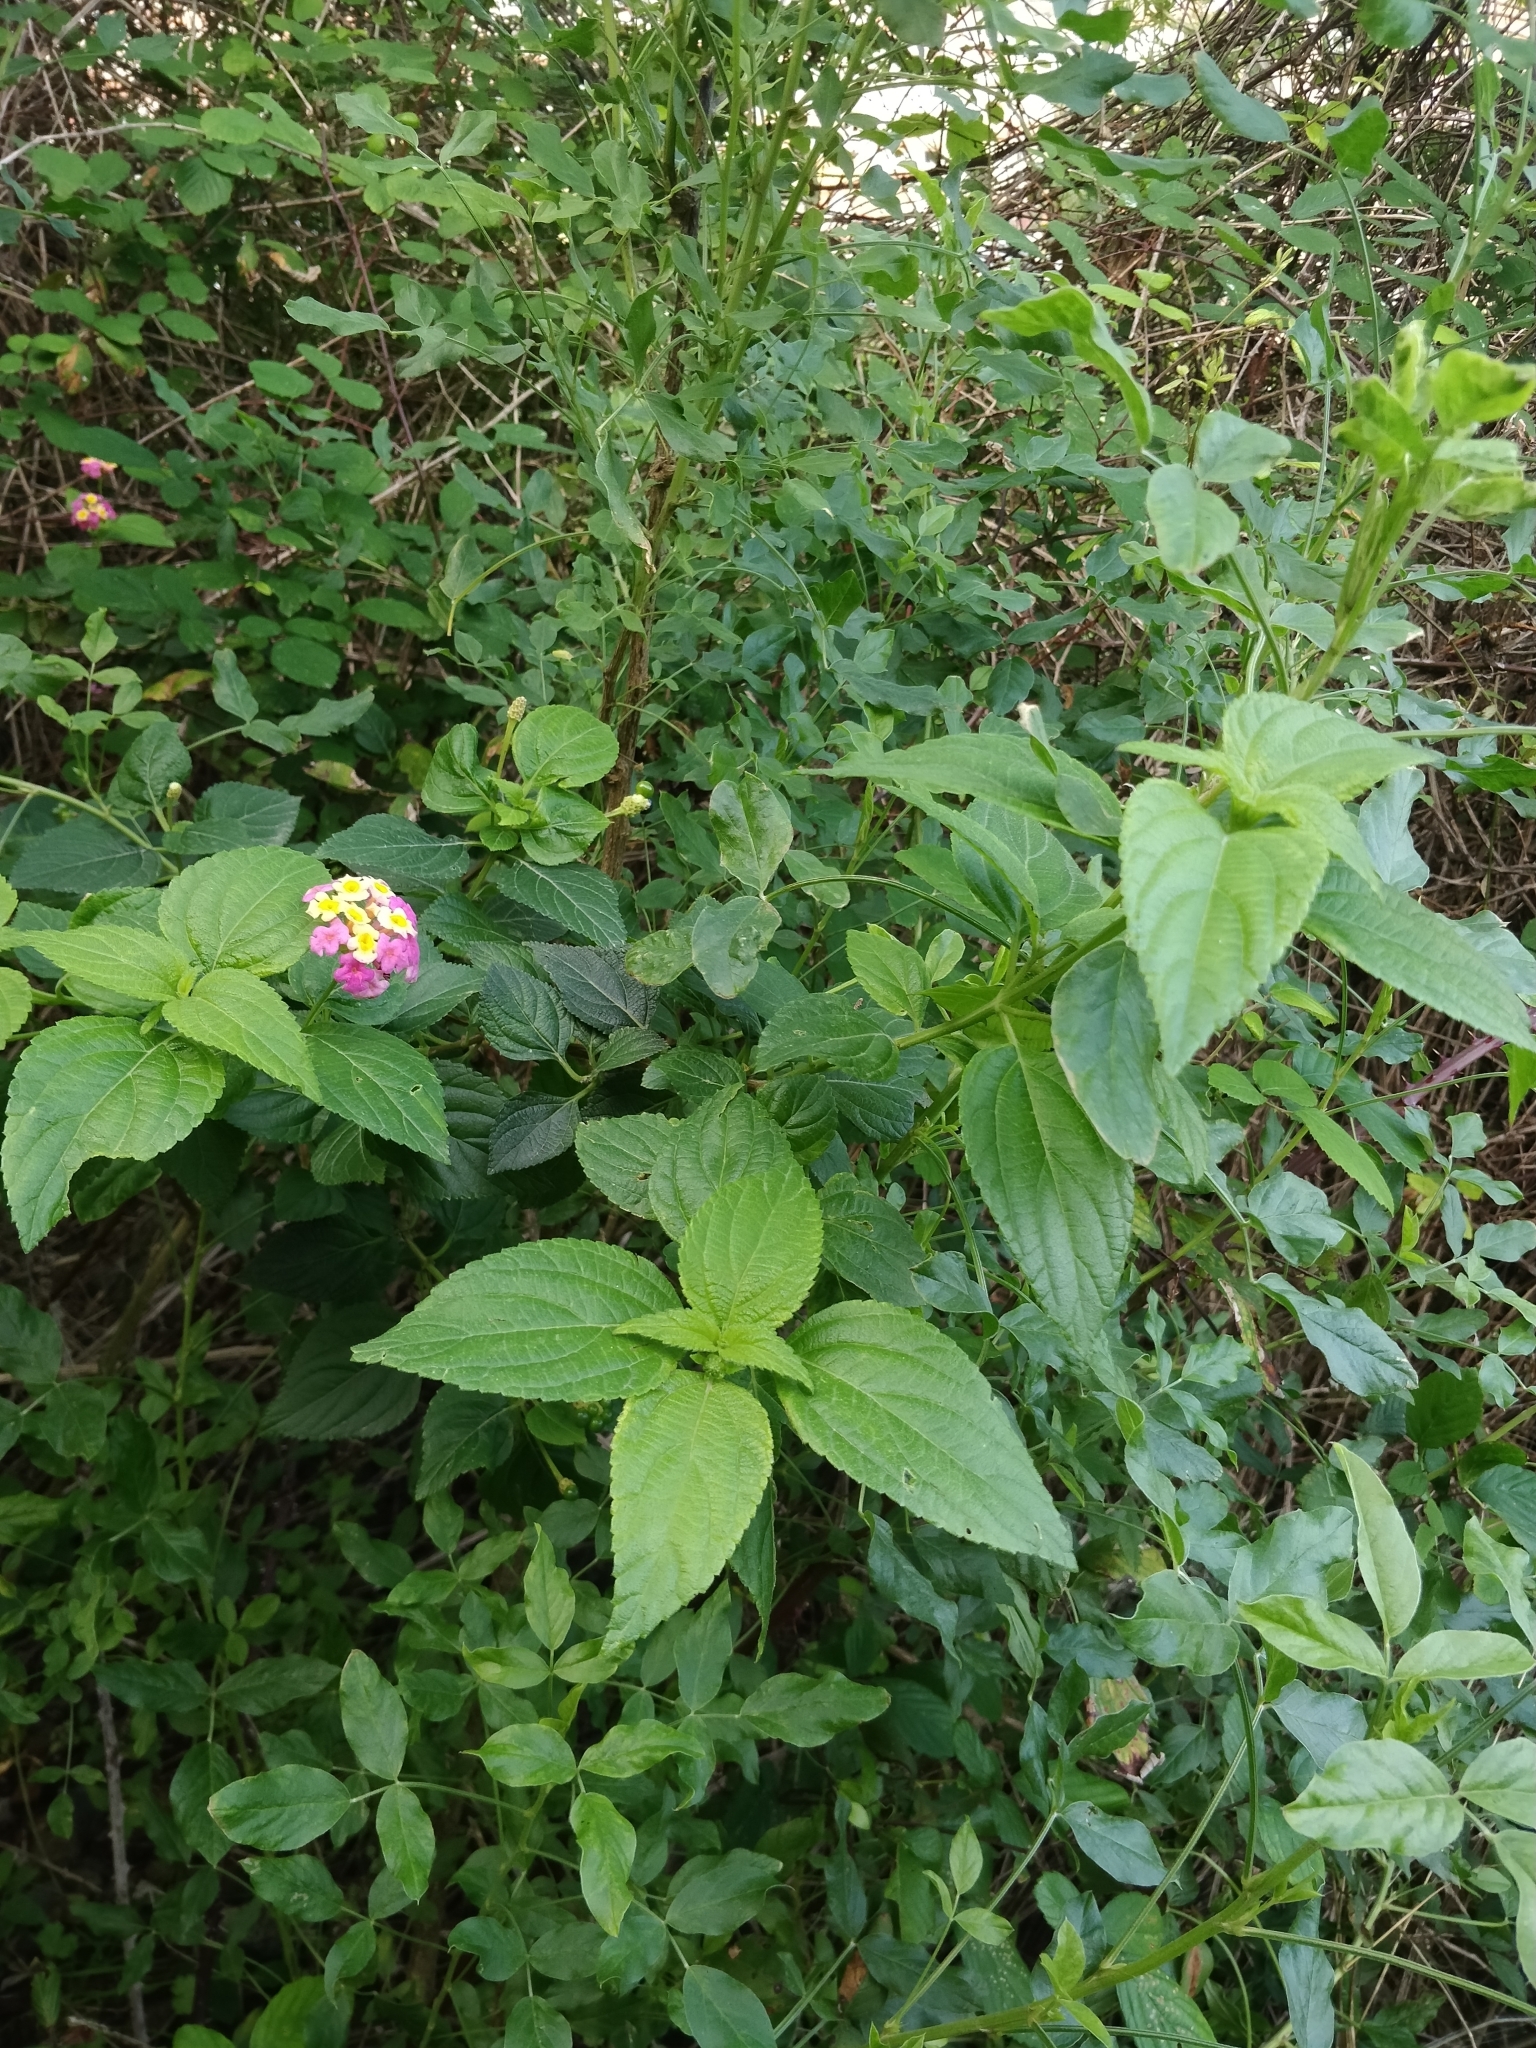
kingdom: Plantae
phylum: Tracheophyta
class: Magnoliopsida
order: Lamiales
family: Verbenaceae
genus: Lantana
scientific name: Lantana camara
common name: Lantana
